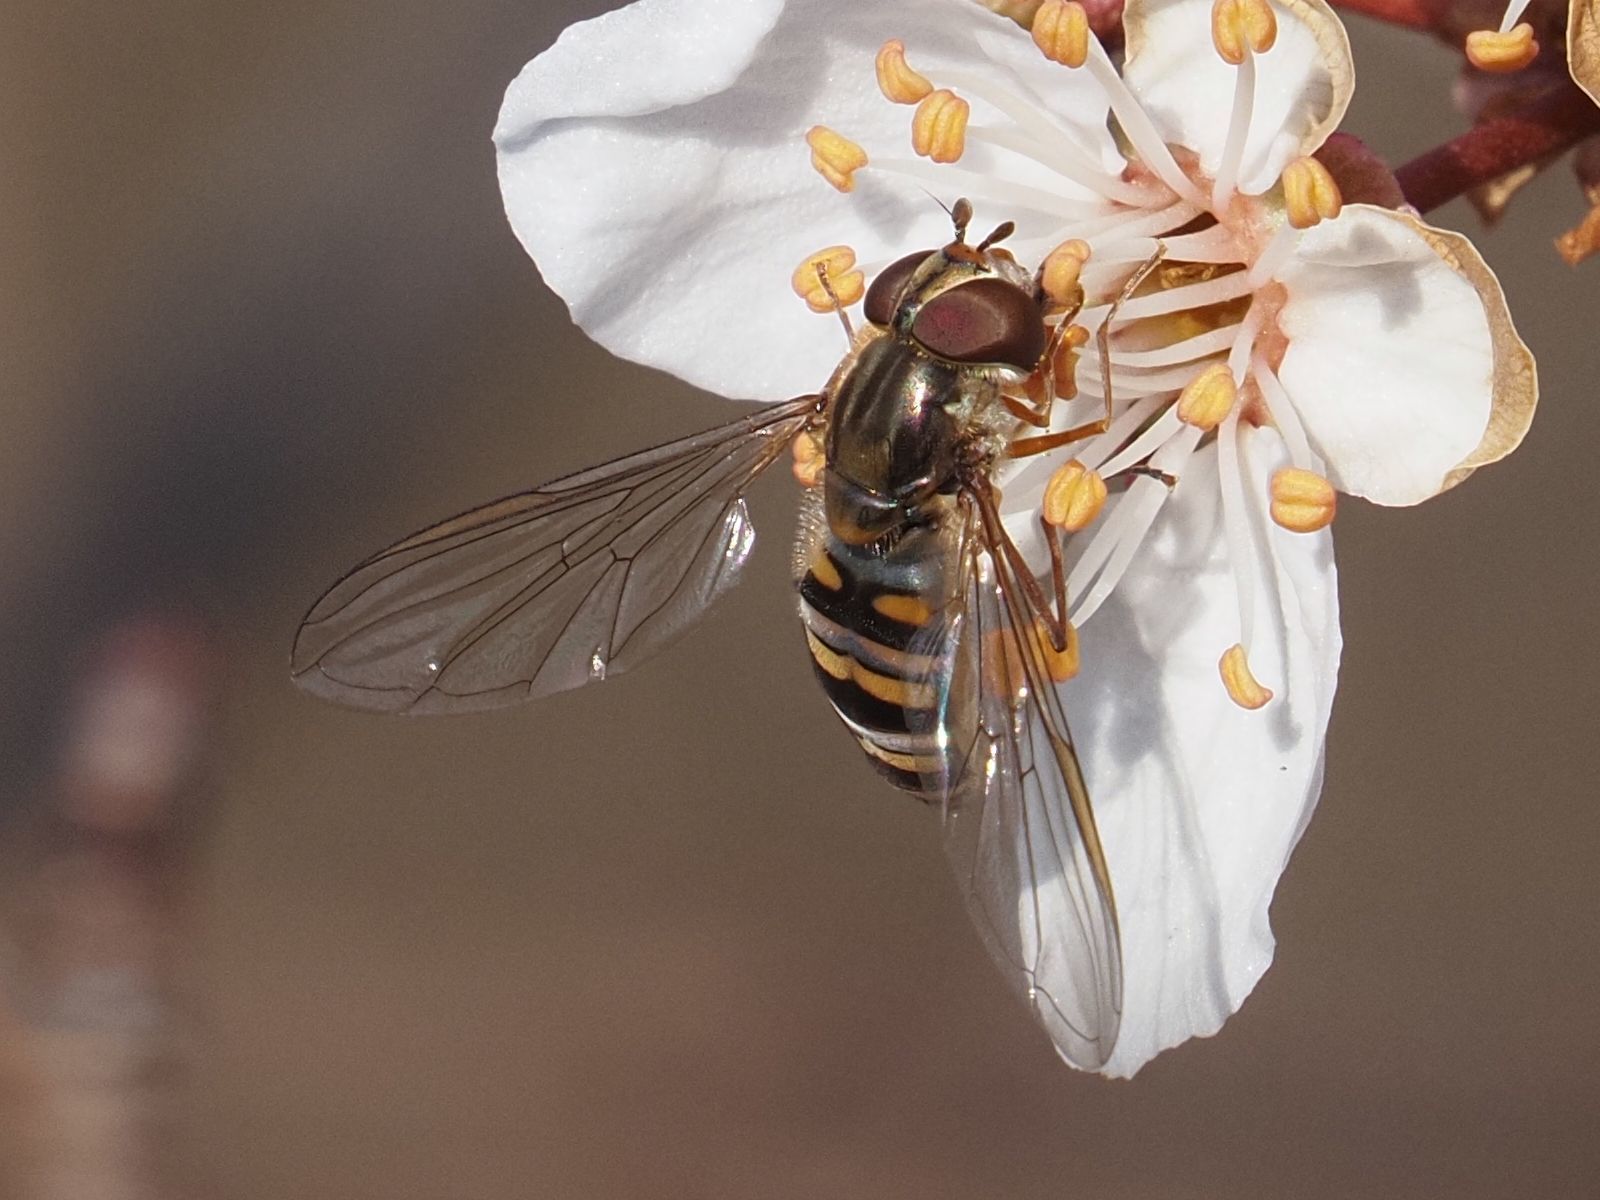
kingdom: Animalia
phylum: Arthropoda
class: Insecta
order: Diptera
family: Syrphidae
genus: Episyrphus
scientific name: Episyrphus balteatus
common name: Marmalade hoverfly
